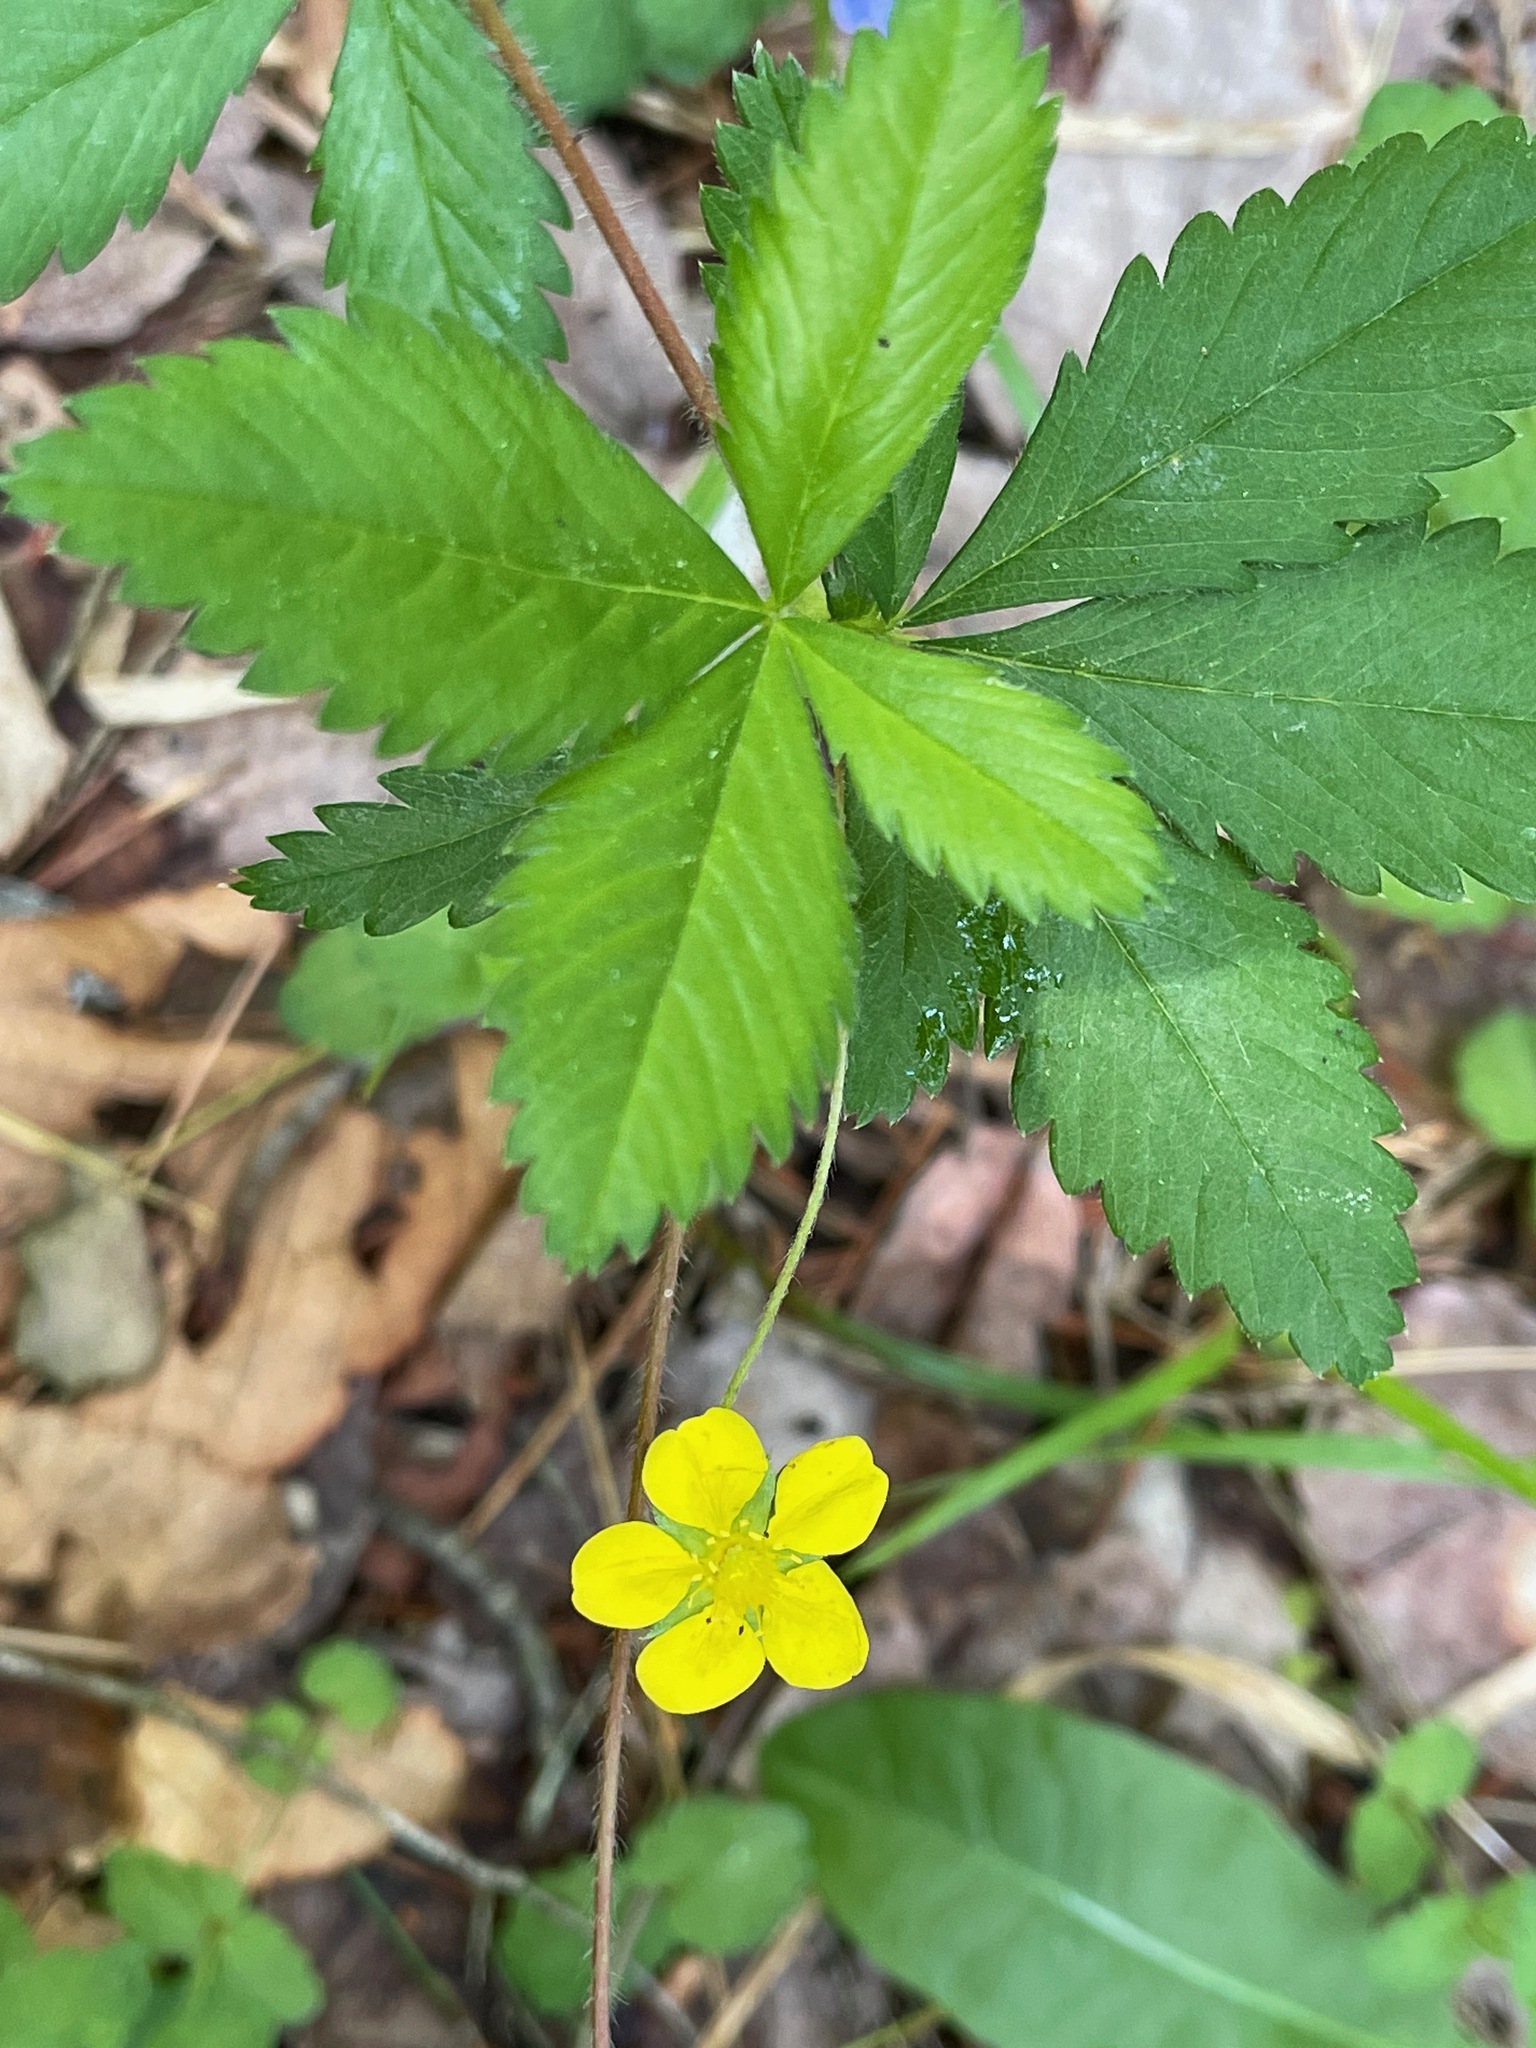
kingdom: Plantae
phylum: Tracheophyta
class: Magnoliopsida
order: Rosales
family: Rosaceae
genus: Potentilla
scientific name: Potentilla simplex
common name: Old field cinquefoil
